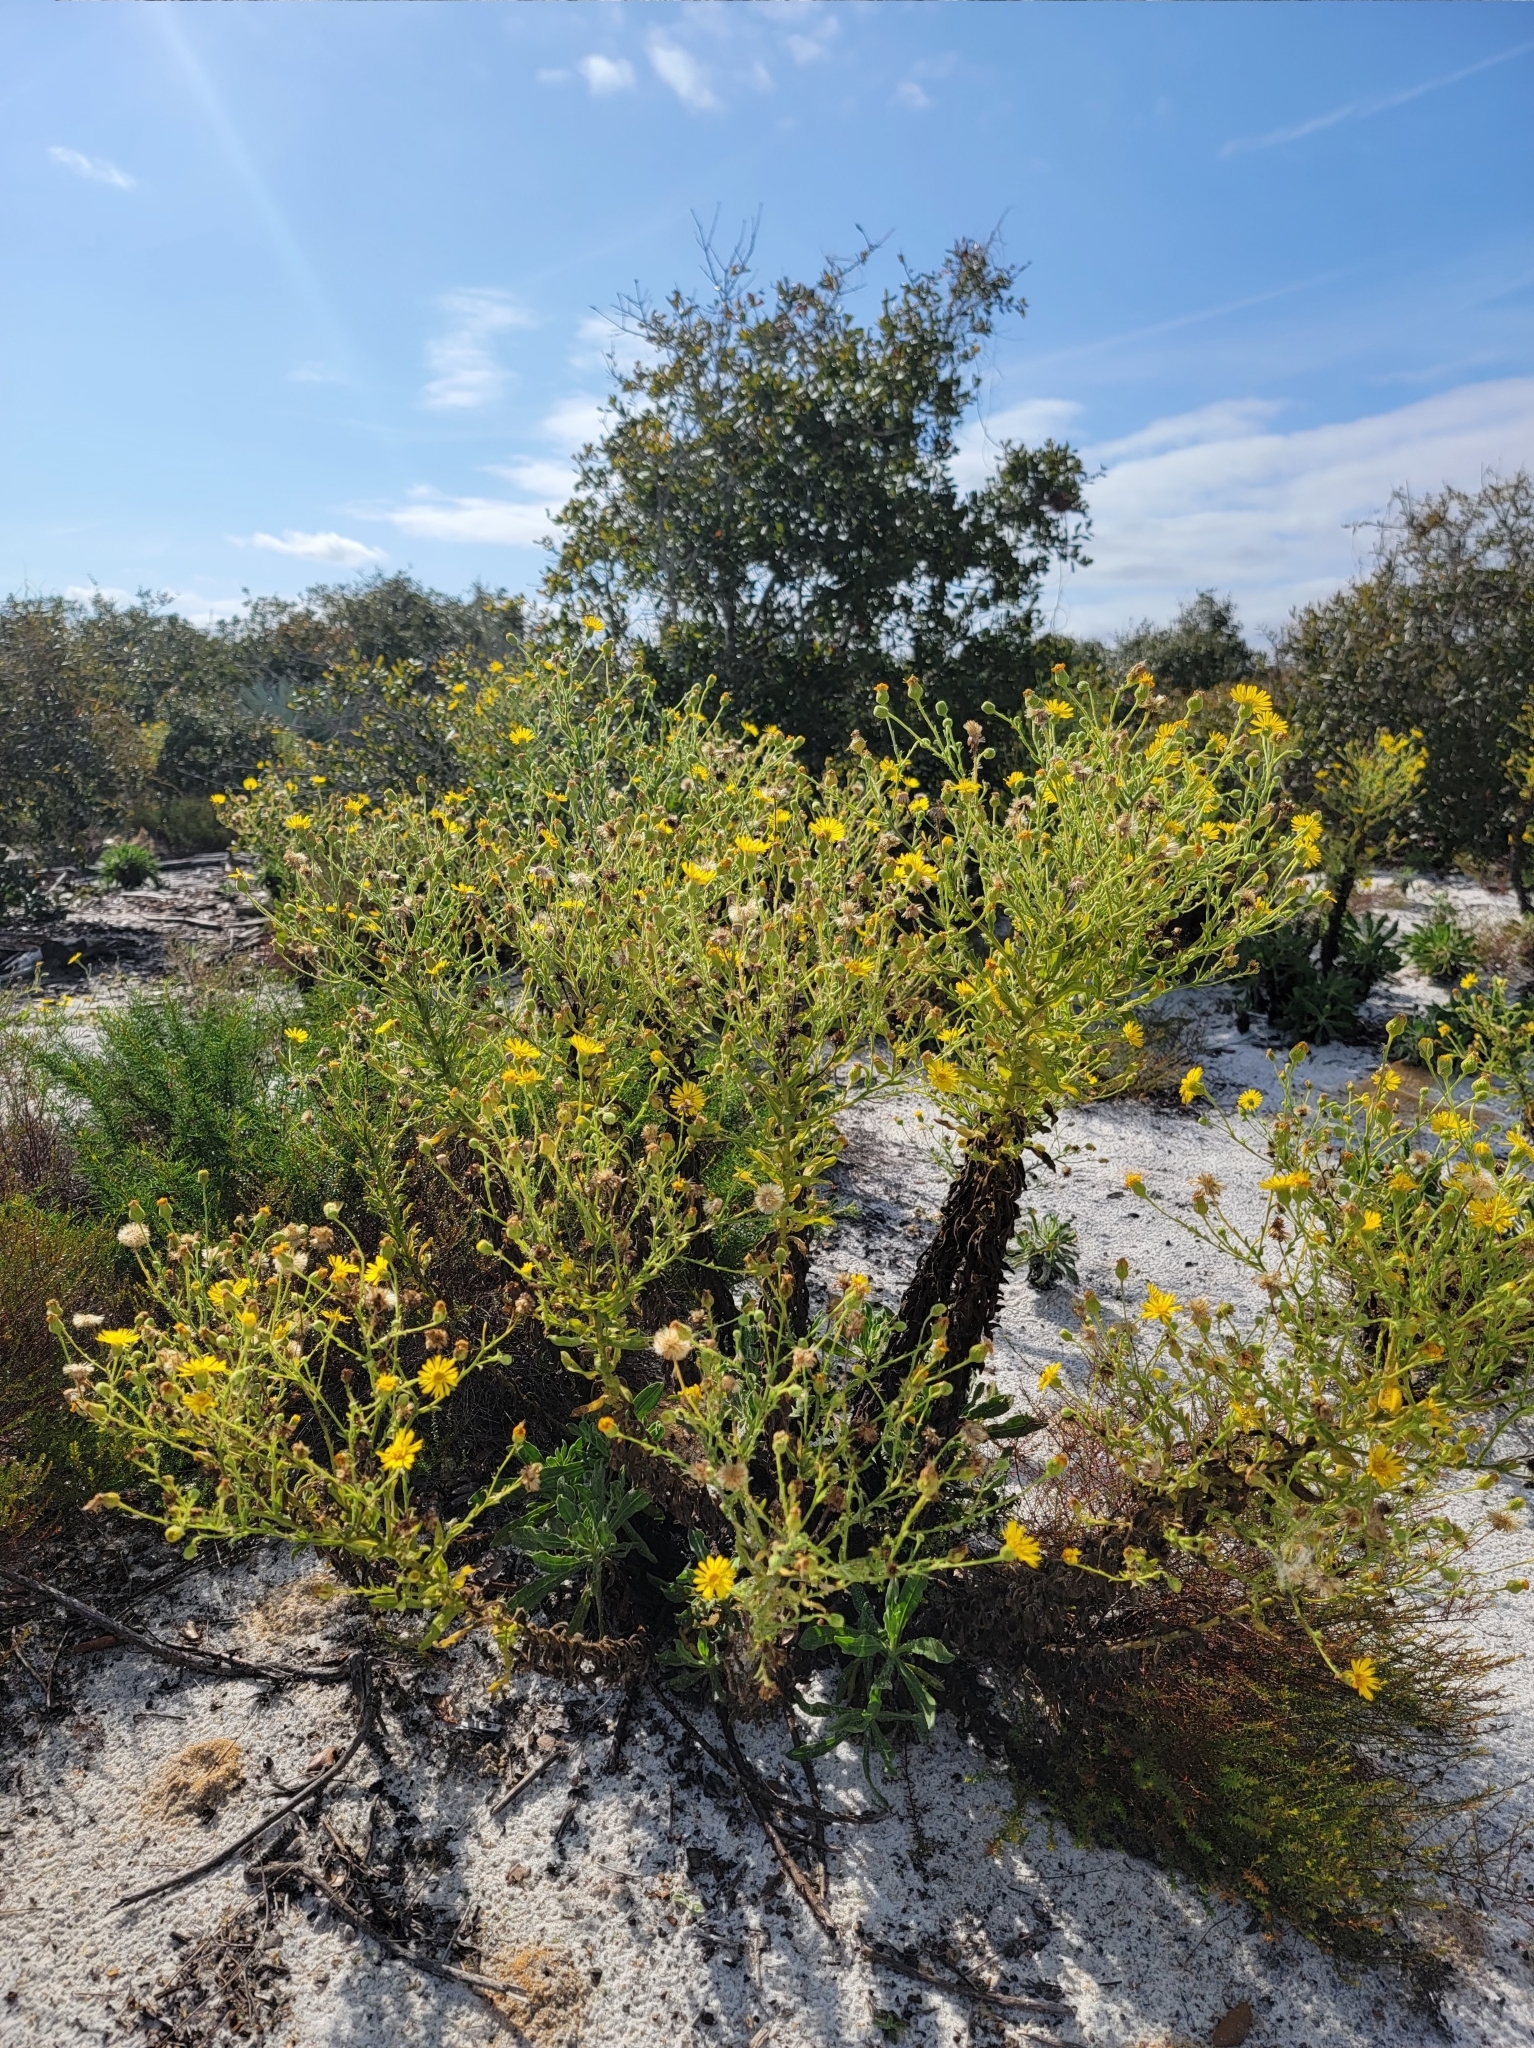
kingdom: Plantae
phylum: Tracheophyta
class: Magnoliopsida
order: Asterales
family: Asteraceae
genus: Chrysopsis
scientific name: Chrysopsis delaneyi
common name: Delaney's goldenaster
